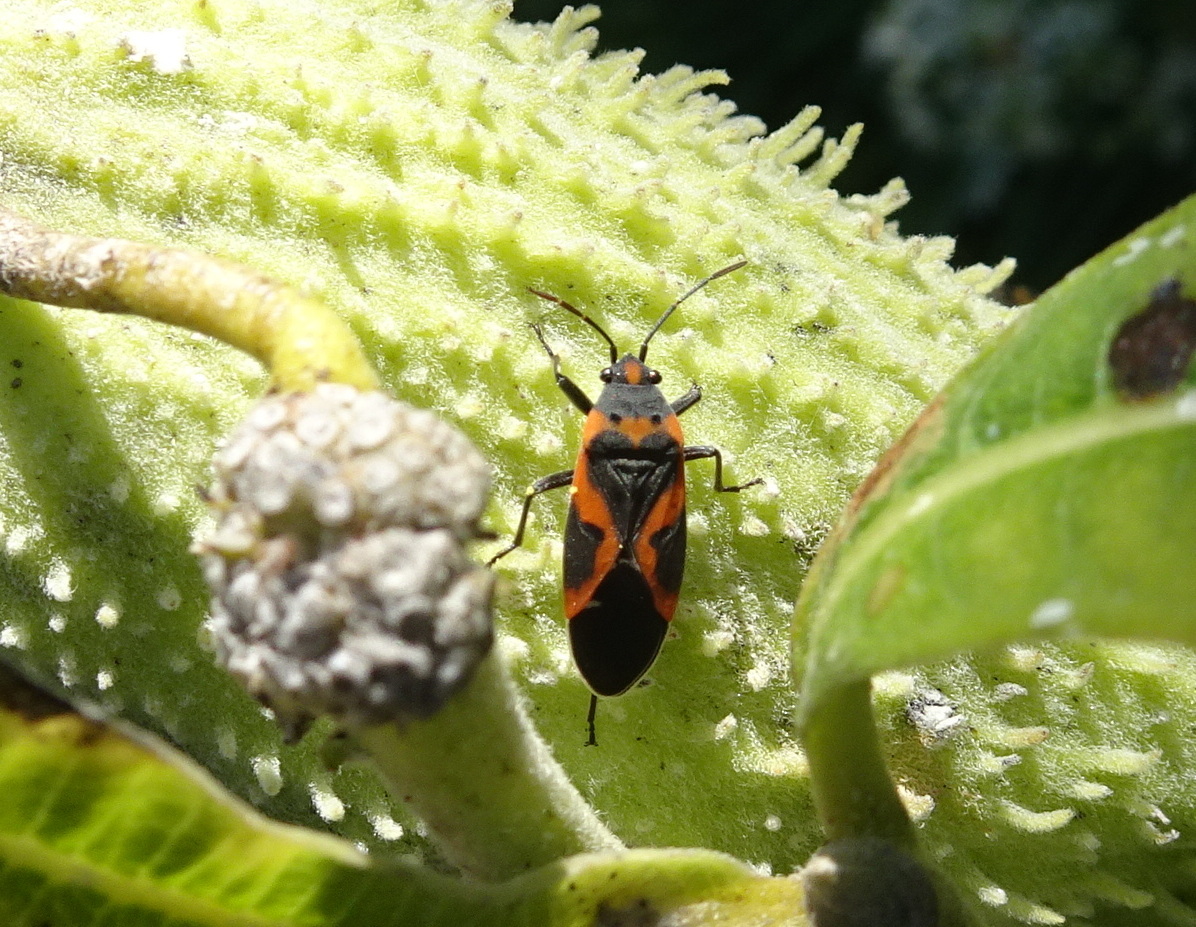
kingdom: Animalia
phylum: Arthropoda
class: Insecta
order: Hemiptera
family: Lygaeidae
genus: Lygaeus
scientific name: Lygaeus kalmii
